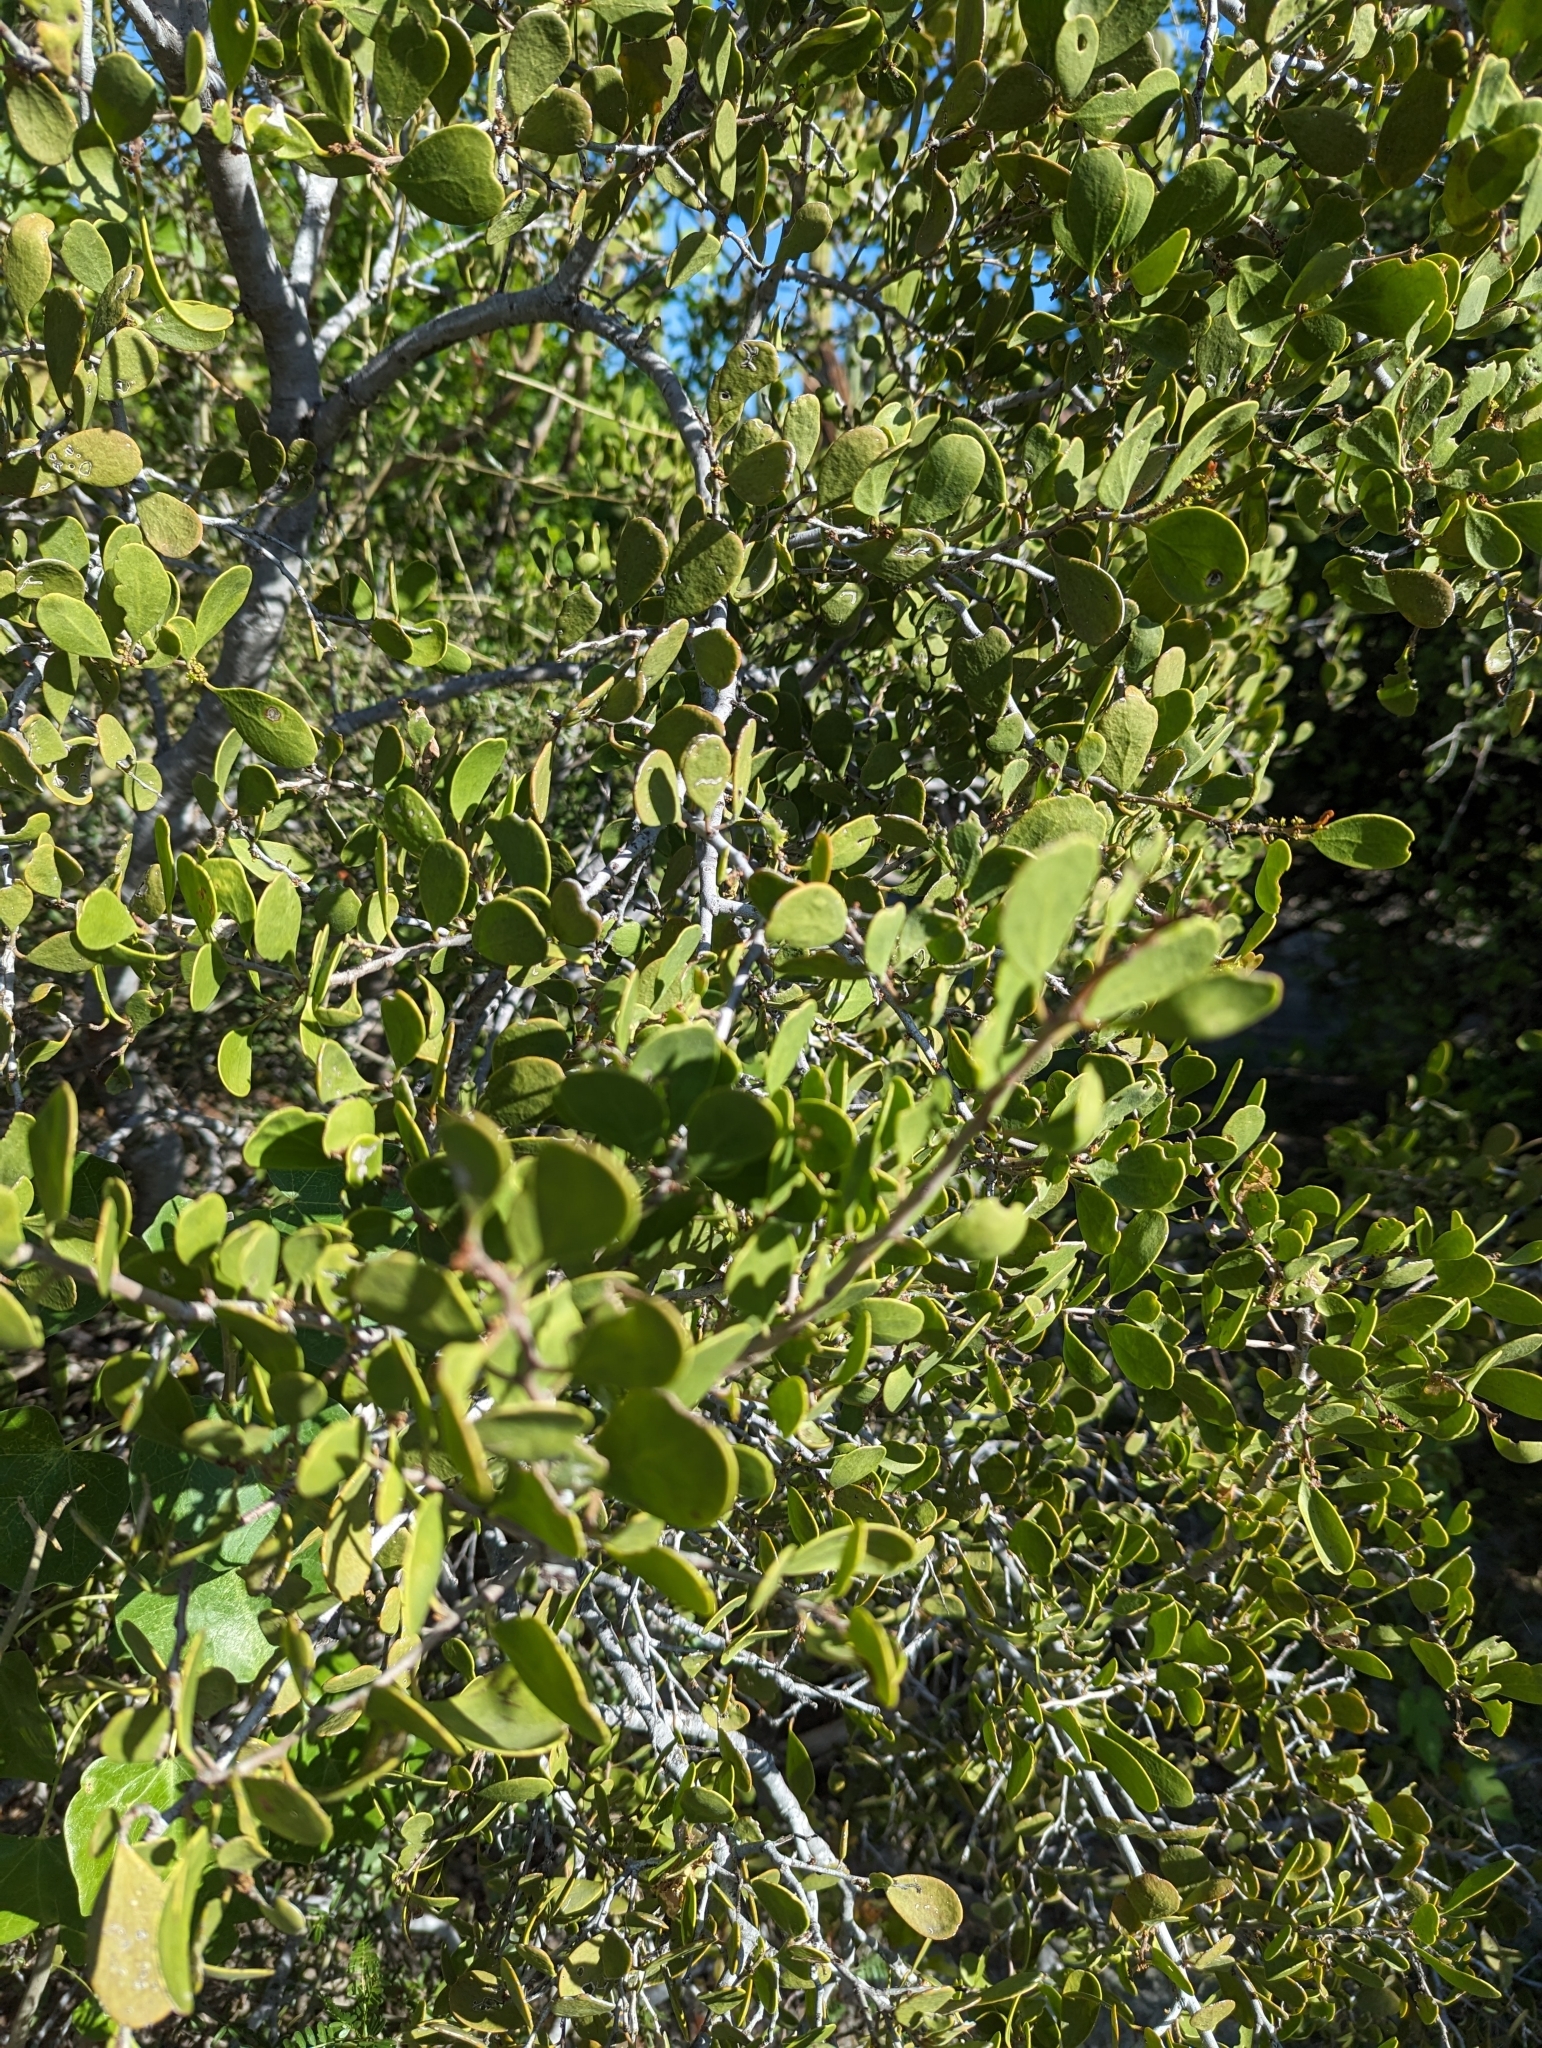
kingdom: Plantae
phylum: Tracheophyta
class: Magnoliopsida
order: Celastrales
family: Celastraceae
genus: Tricerma
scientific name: Tricerma phyllanthoides
